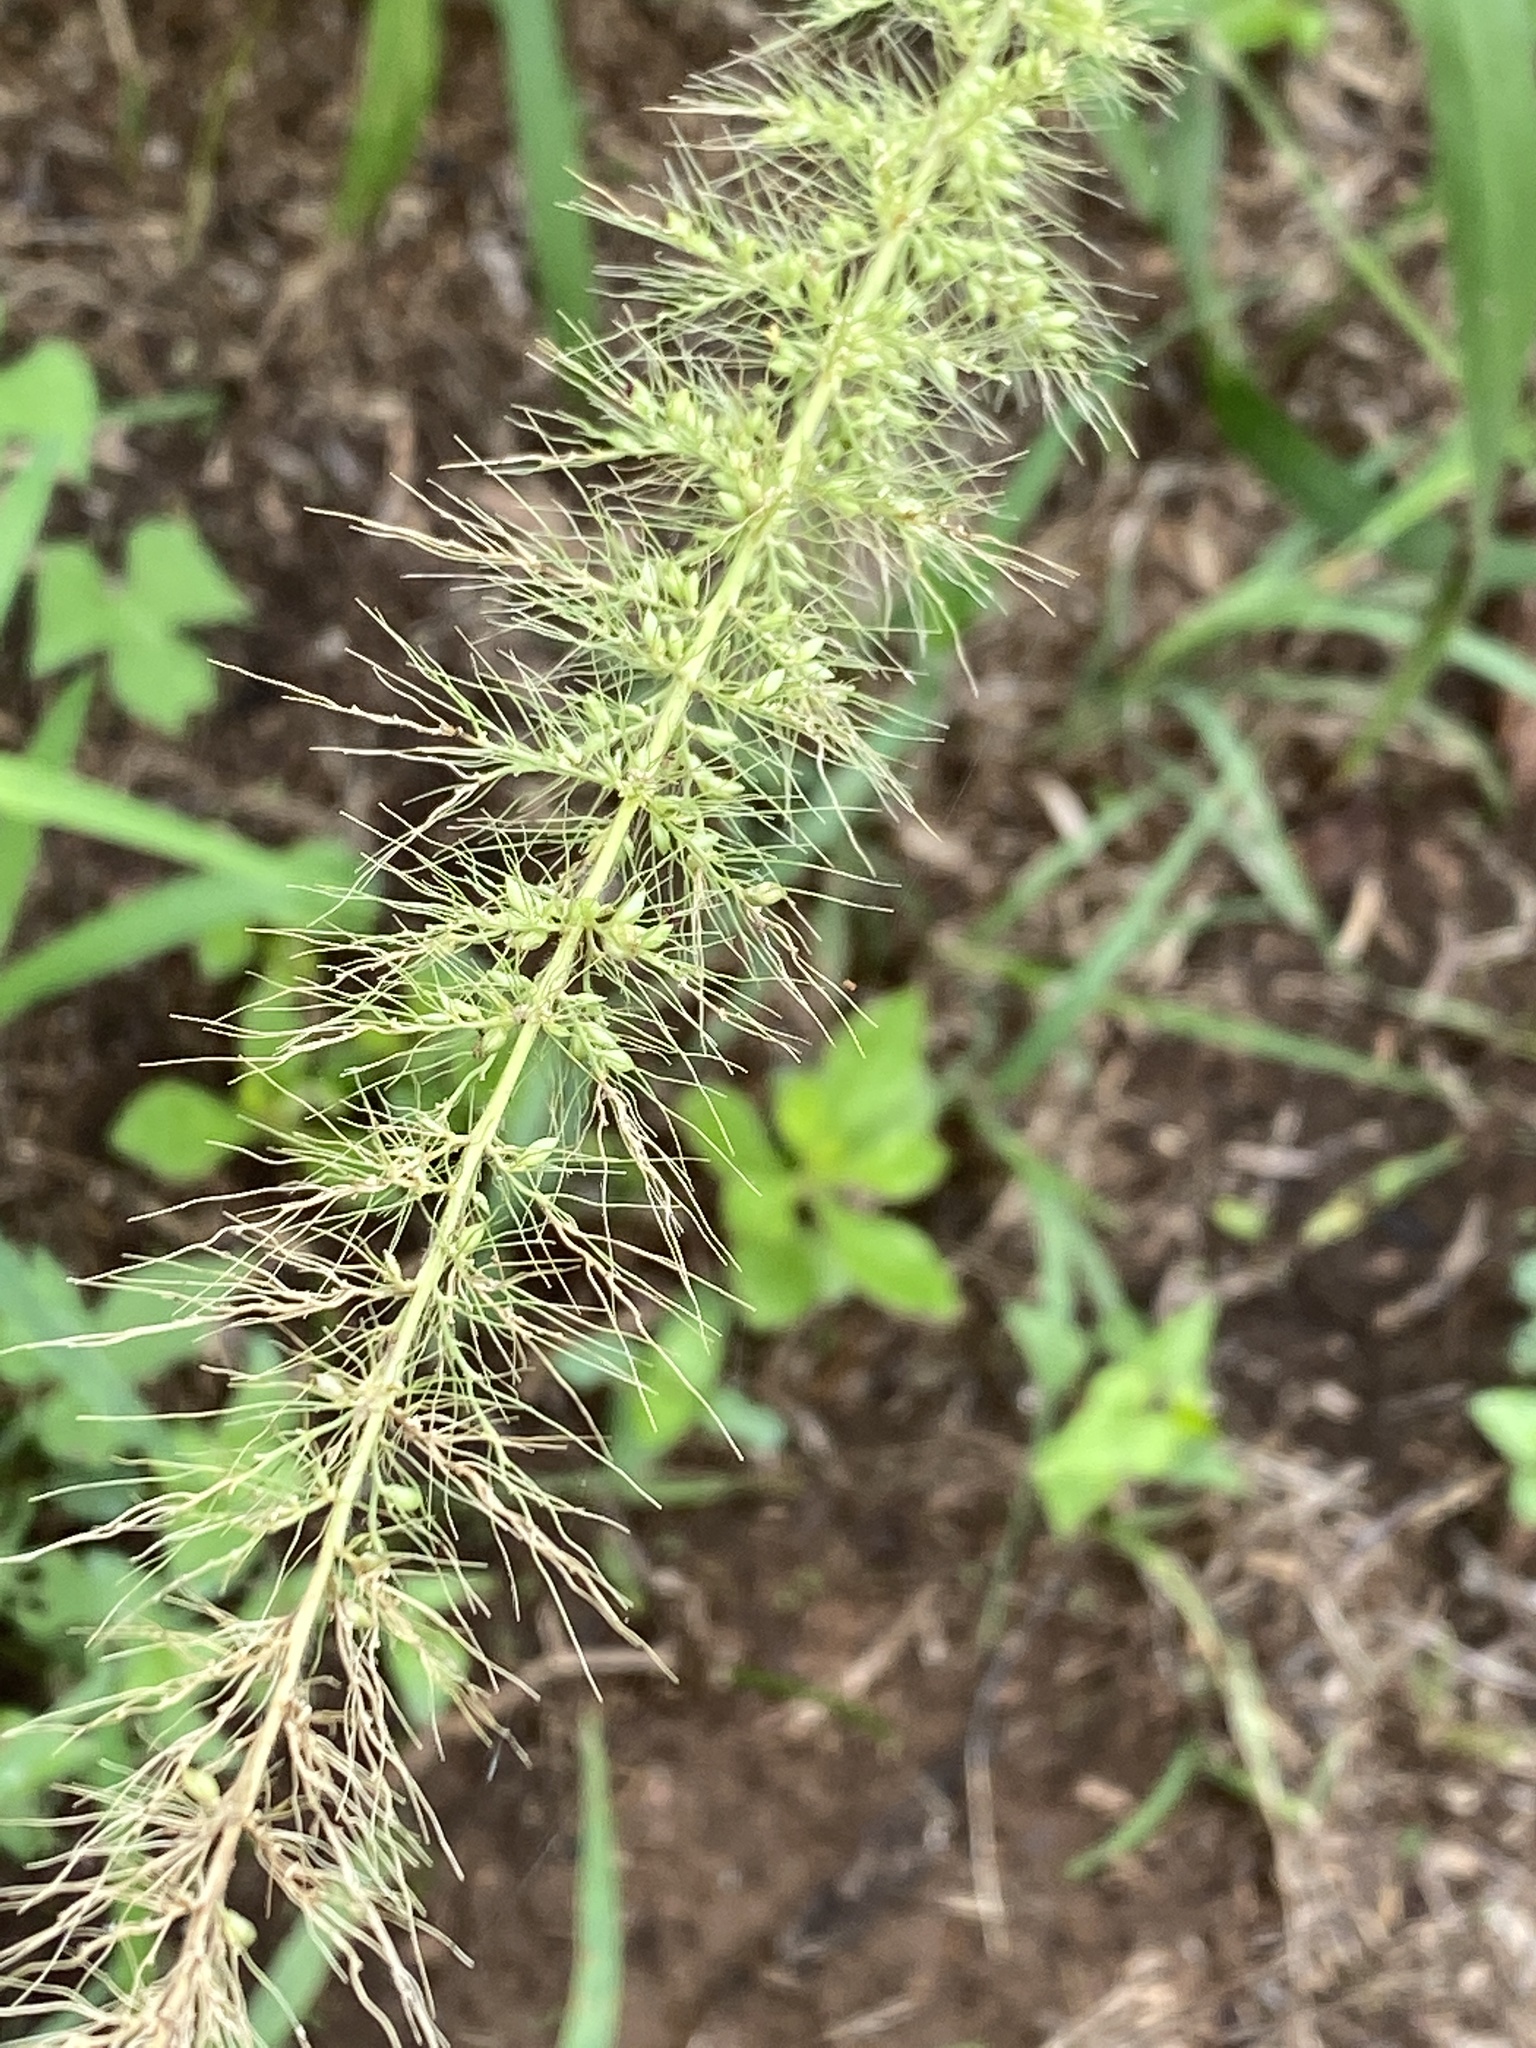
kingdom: Plantae
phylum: Tracheophyta
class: Liliopsida
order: Poales
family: Poaceae
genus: Setaria
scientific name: Setaria scheelei
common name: Southwestern bristle grass
